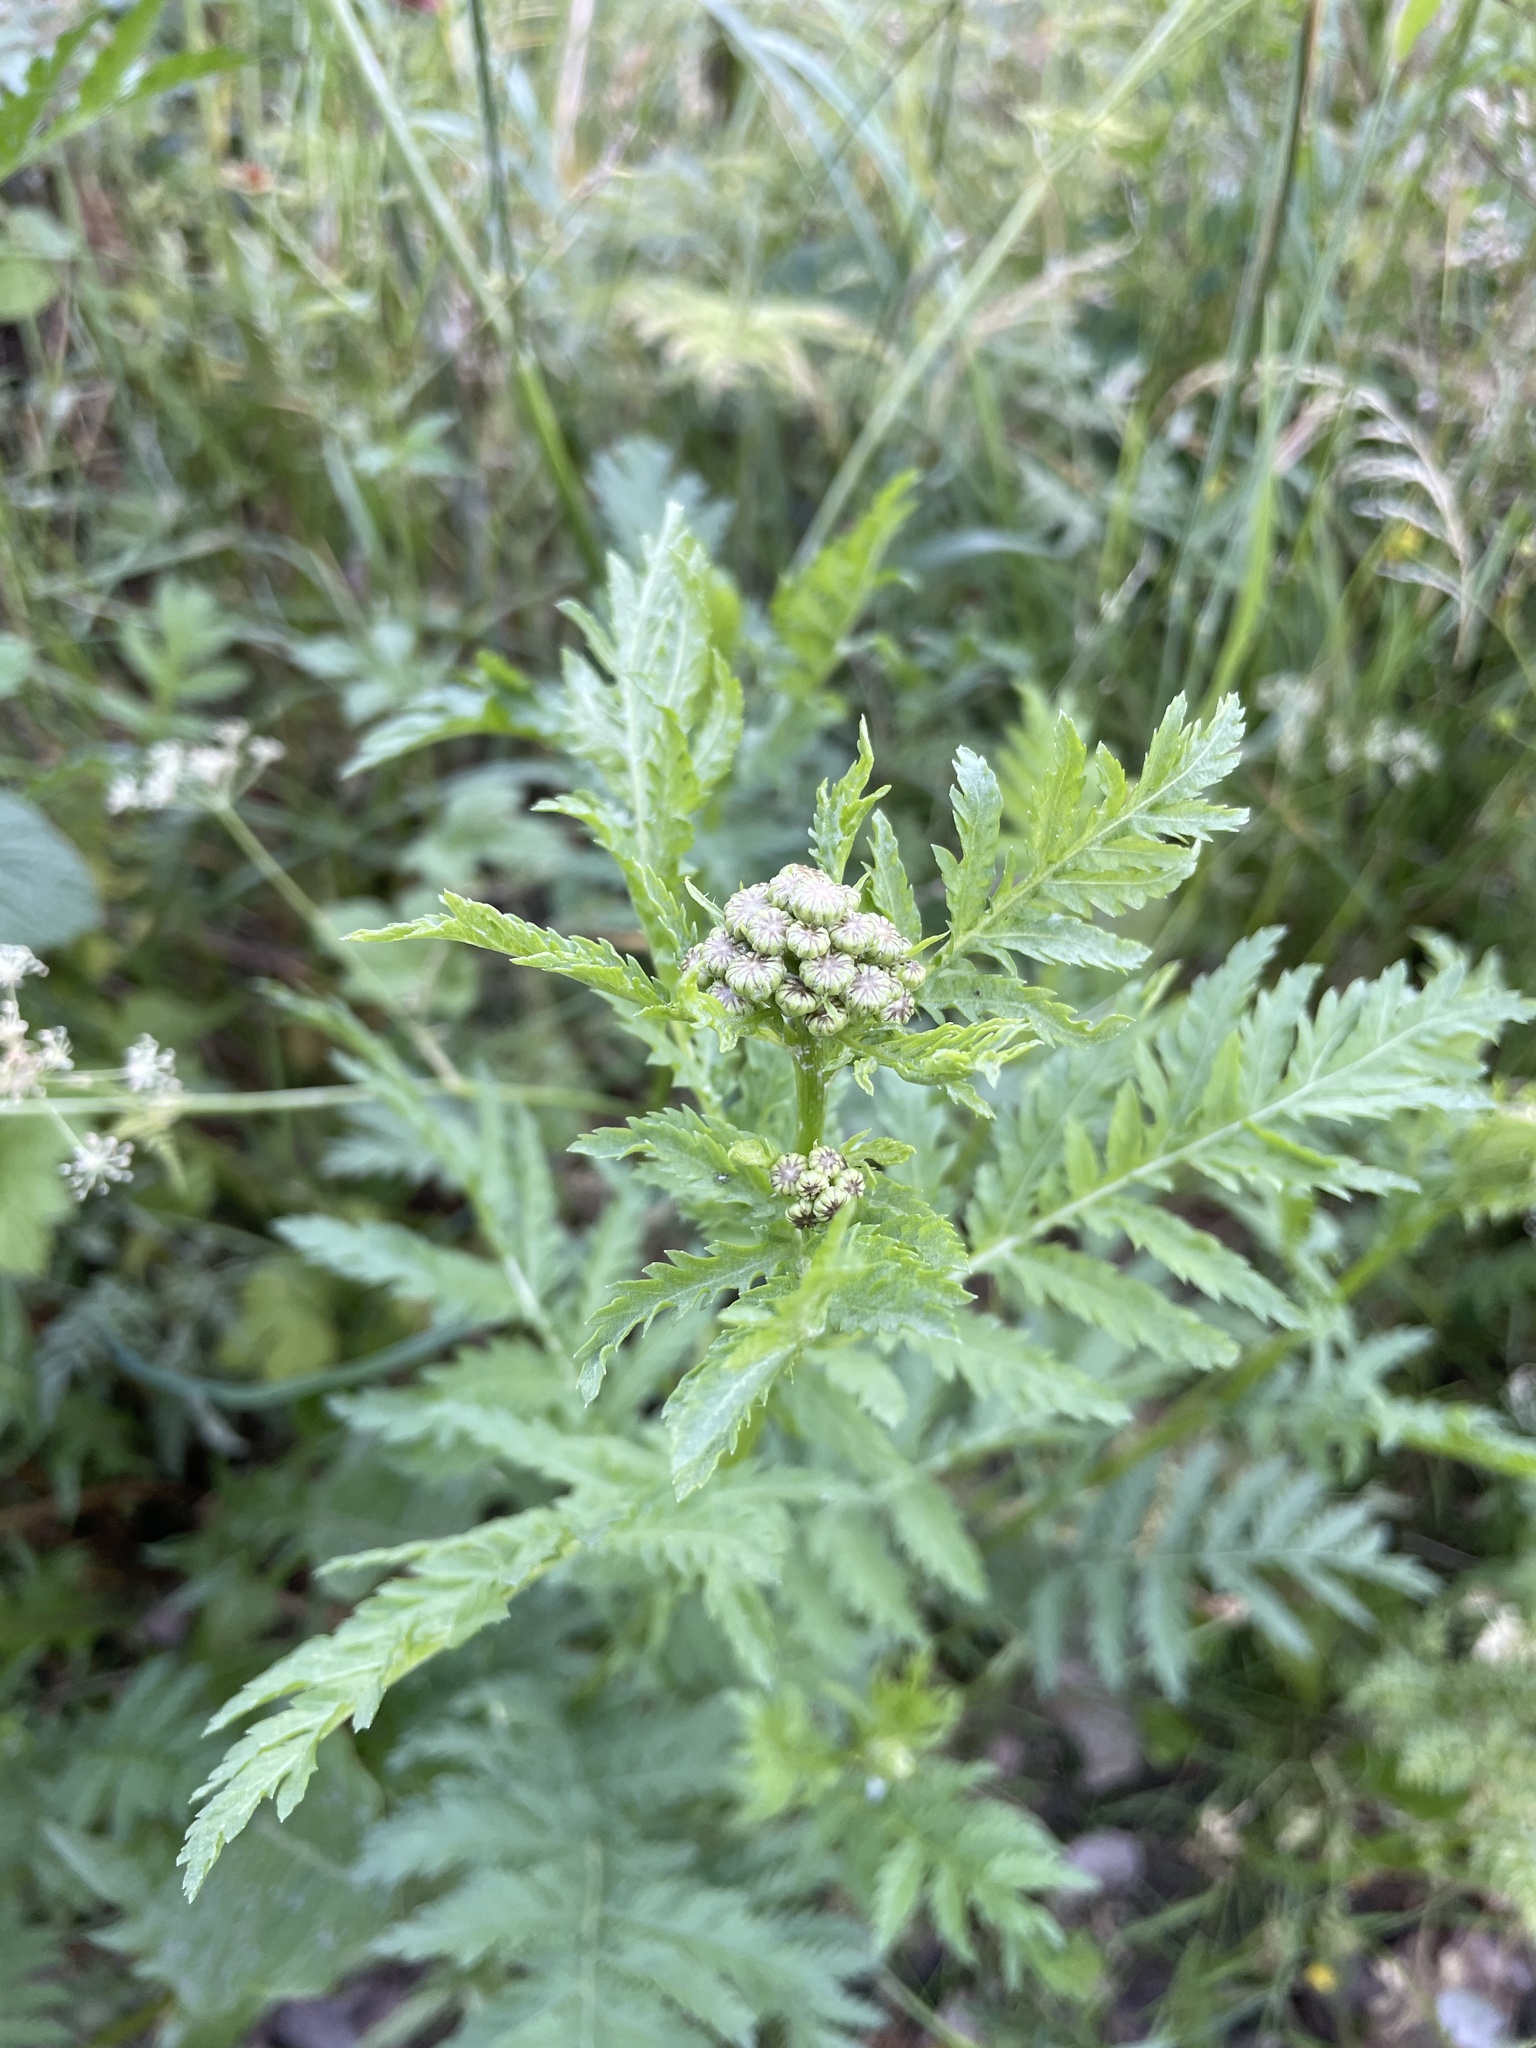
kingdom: Plantae
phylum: Tracheophyta
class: Magnoliopsida
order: Asterales
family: Asteraceae
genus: Tanacetum
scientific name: Tanacetum vulgare
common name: Common tansy
